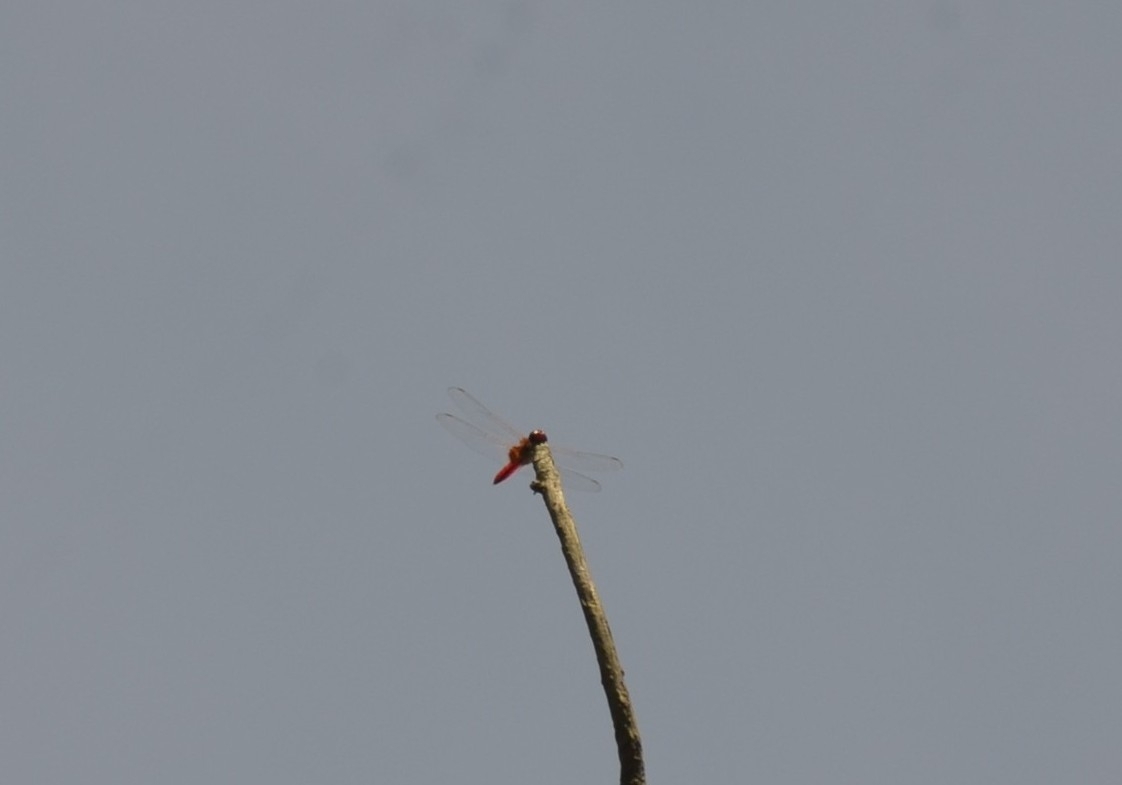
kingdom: Animalia
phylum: Arthropoda
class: Insecta
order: Odonata
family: Libellulidae
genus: Urothemis
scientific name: Urothemis signata
